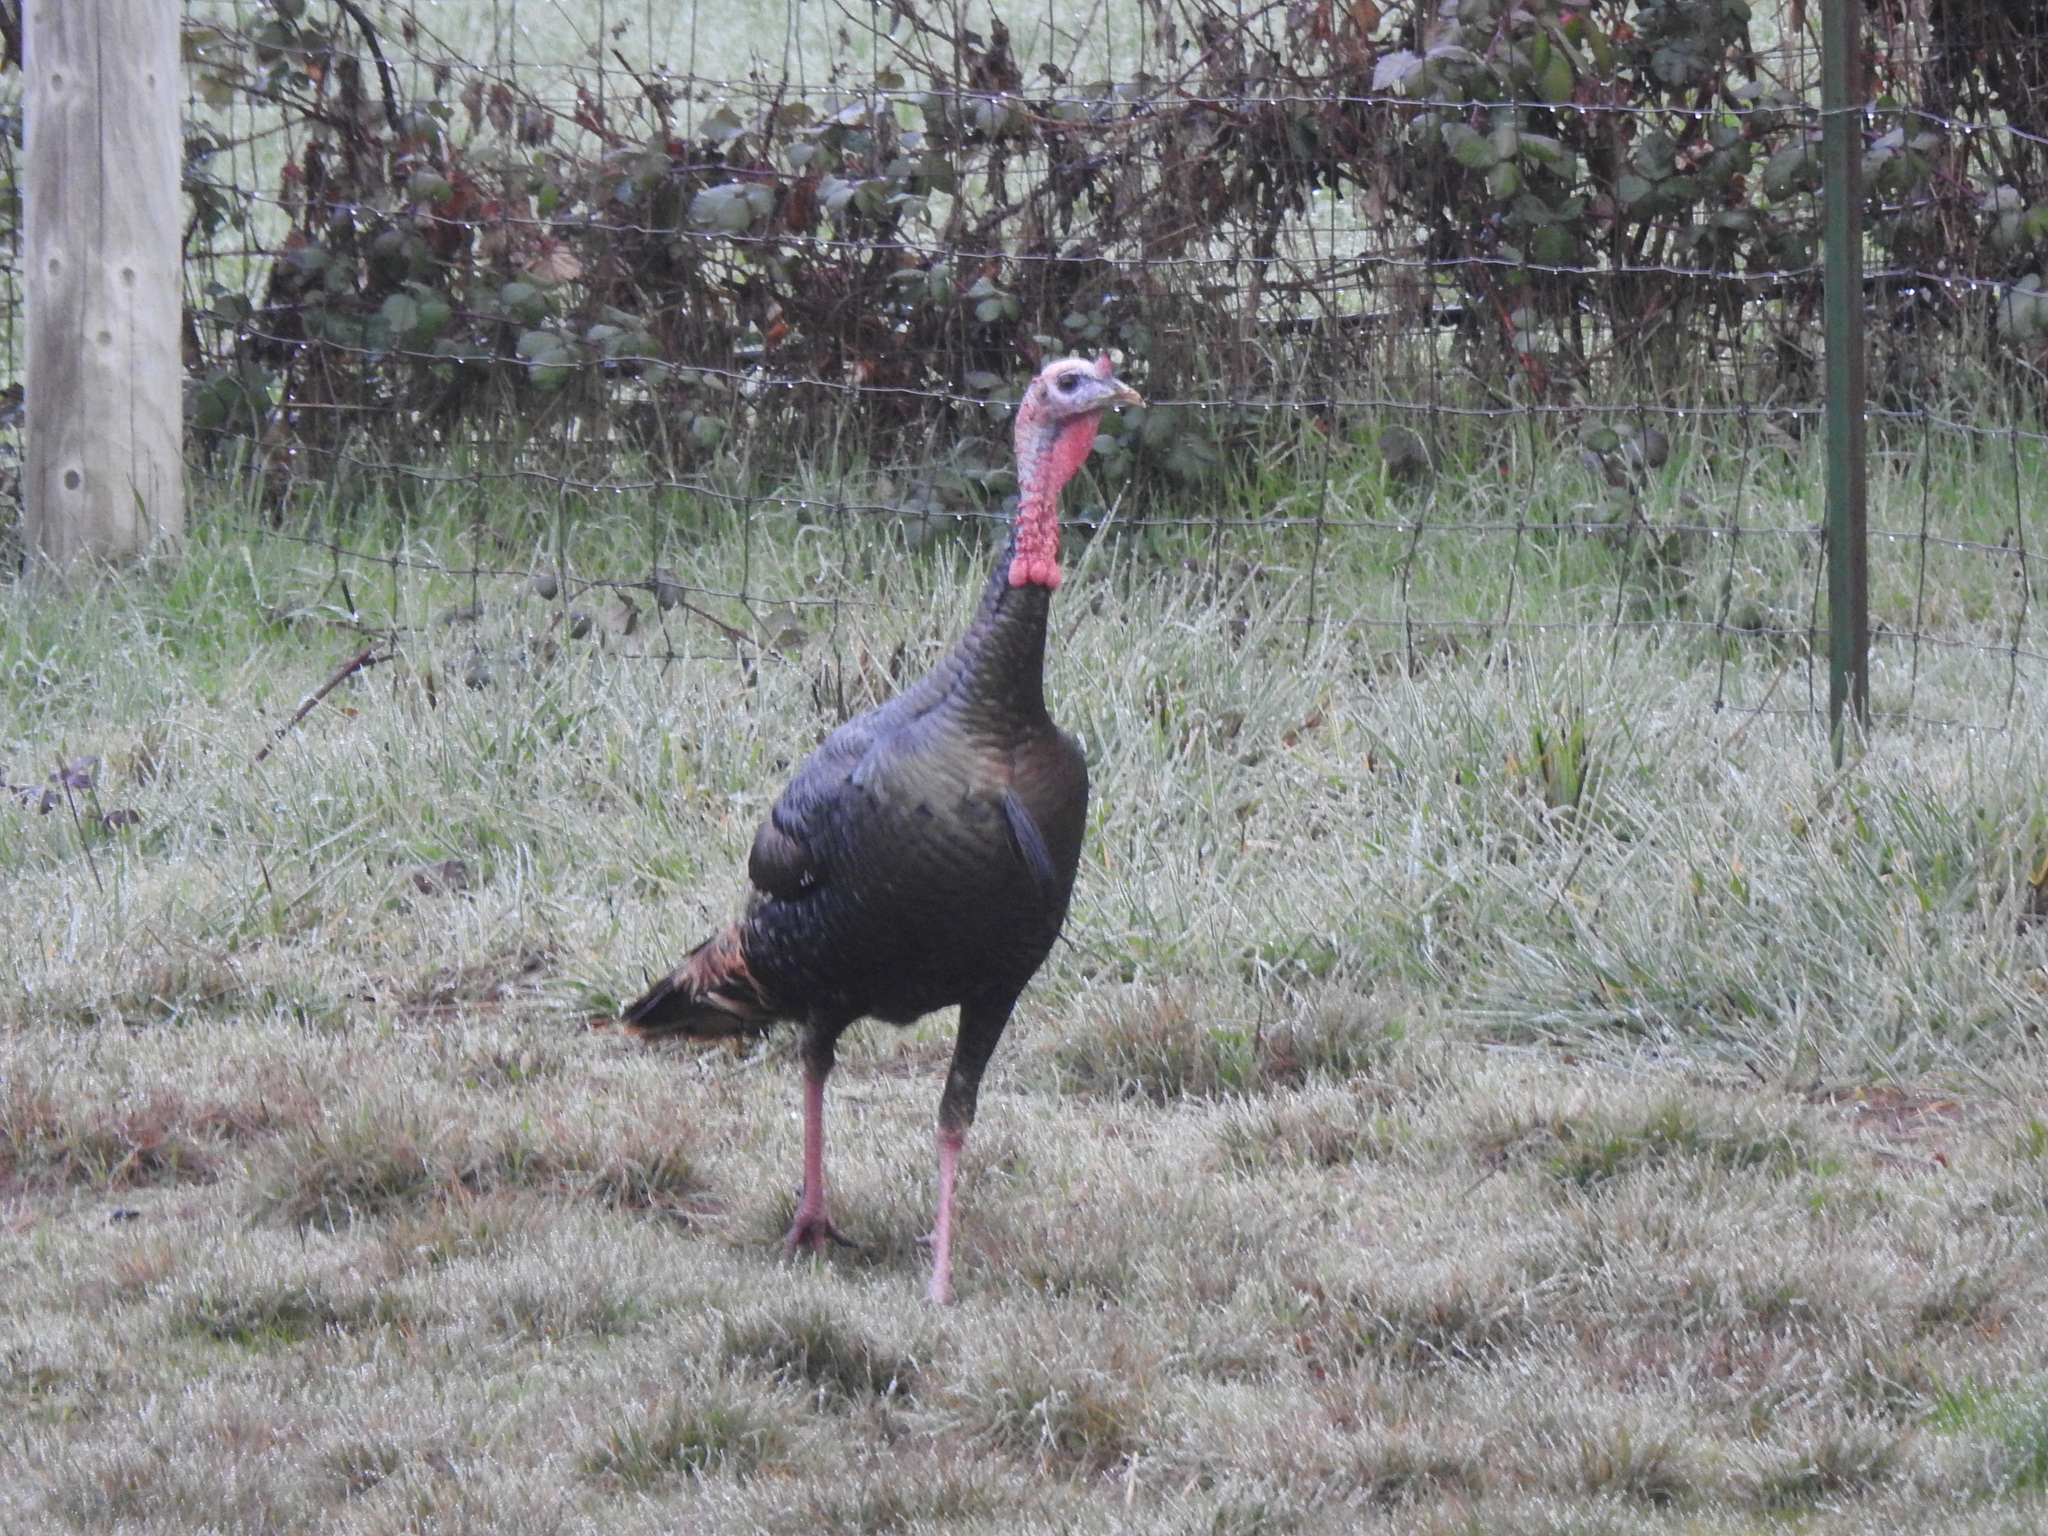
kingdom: Animalia
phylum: Chordata
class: Aves
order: Galliformes
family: Phasianidae
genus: Meleagris
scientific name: Meleagris gallopavo
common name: Wild turkey
